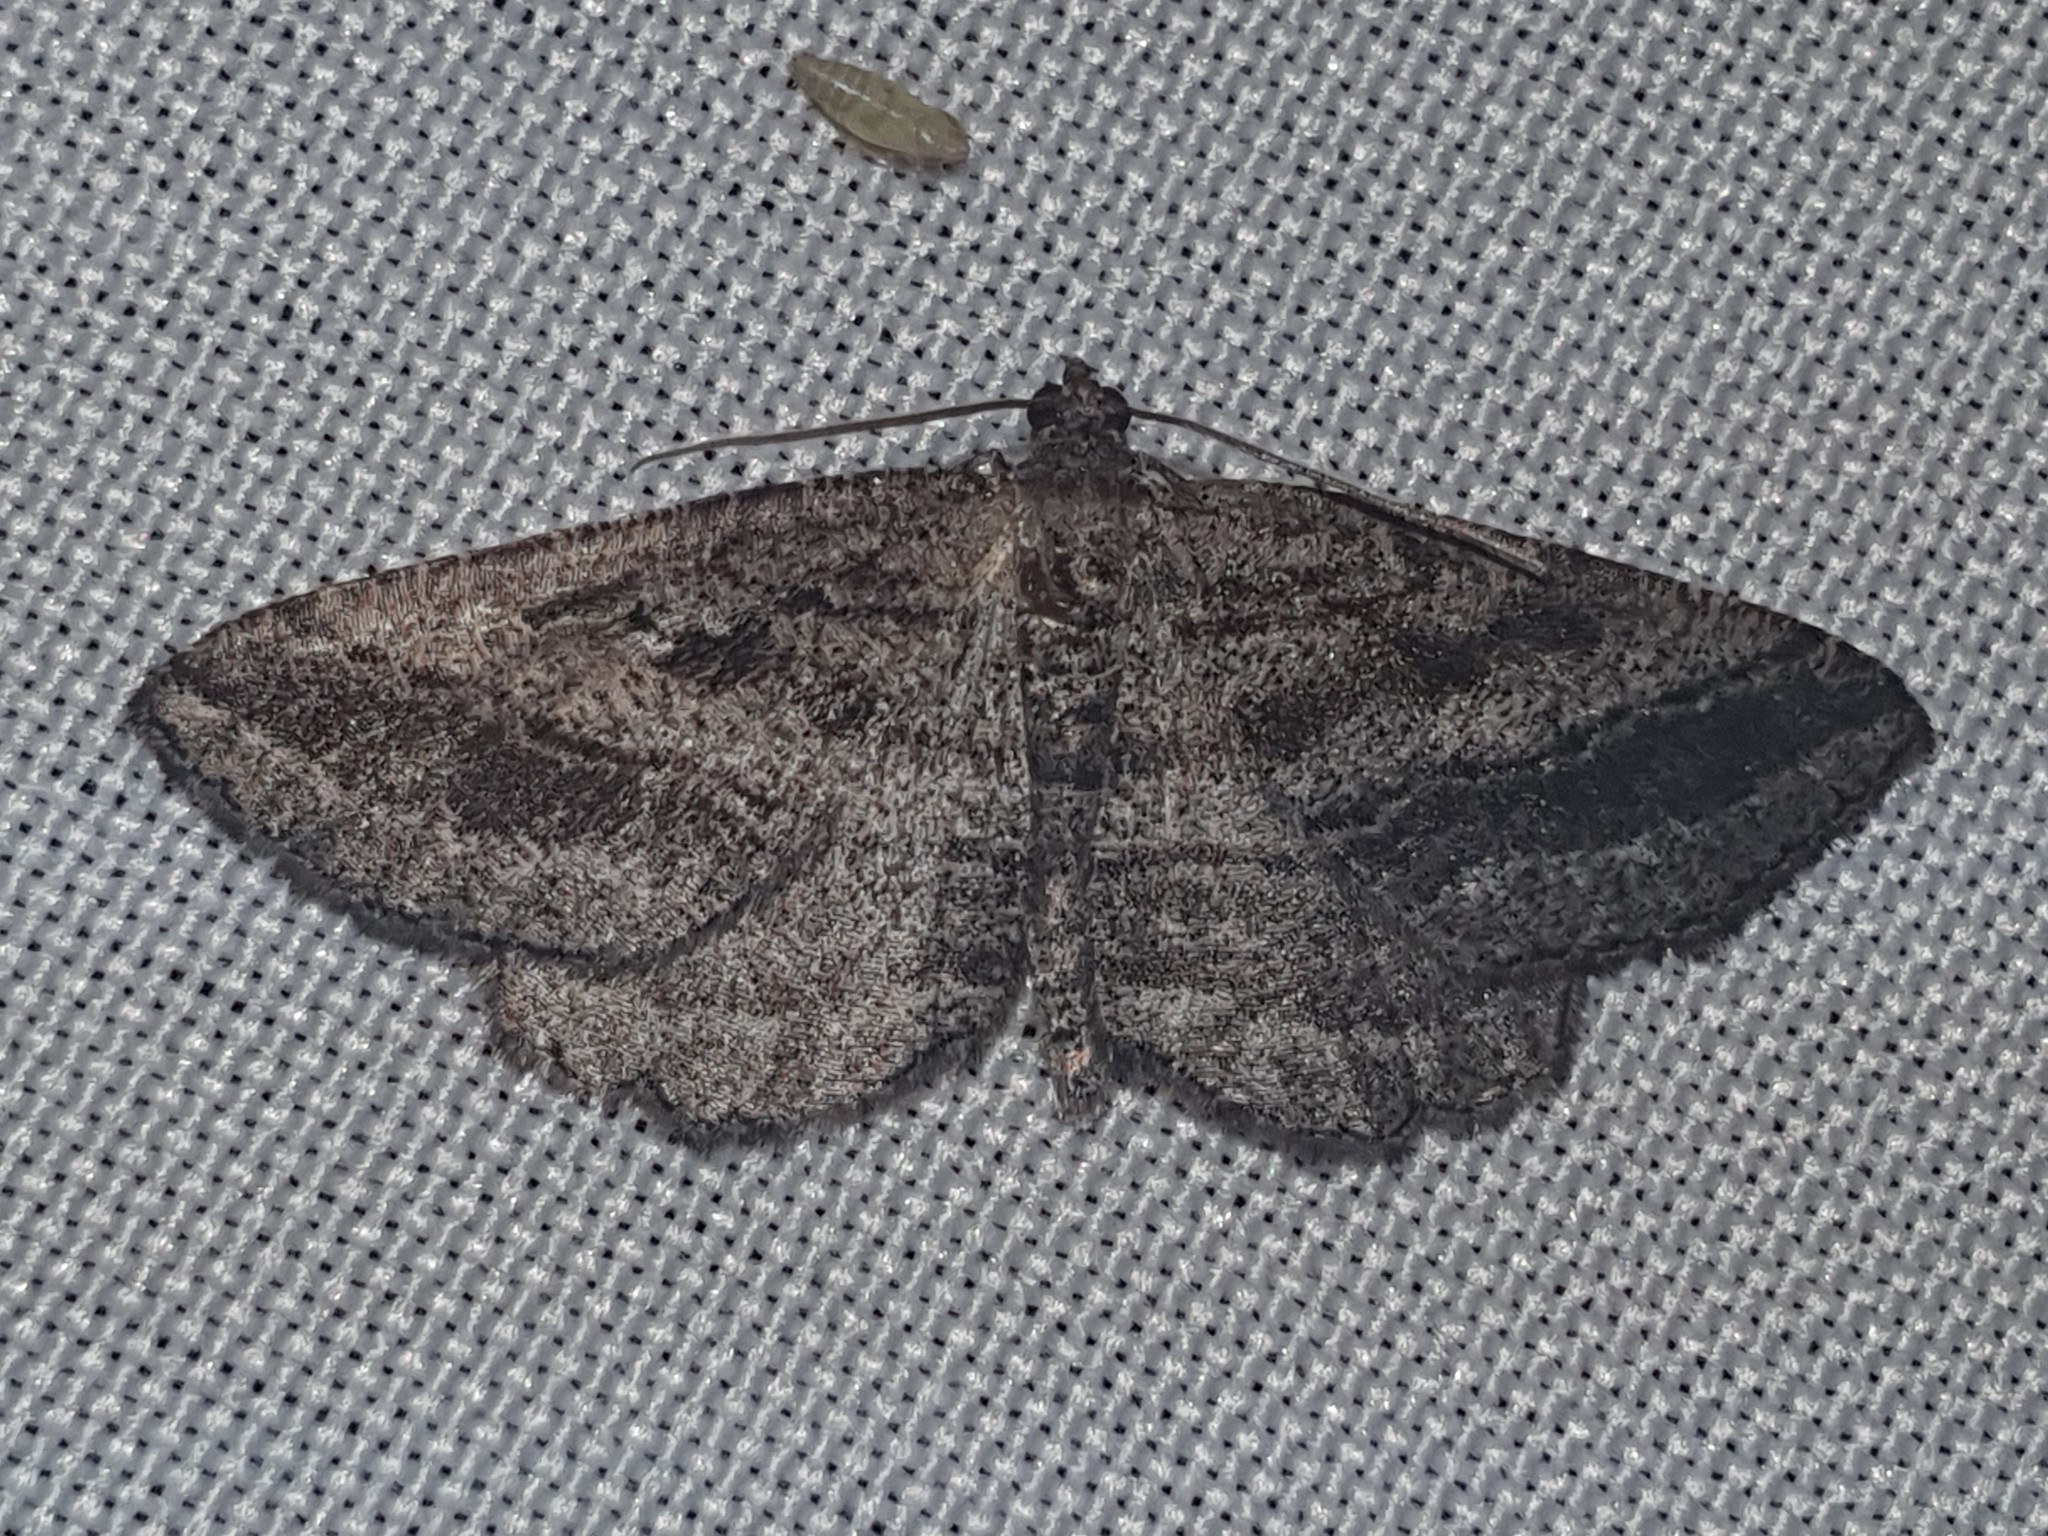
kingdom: Animalia
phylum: Arthropoda
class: Insecta
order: Lepidoptera
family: Geometridae
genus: Rhoptria
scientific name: Rhoptria asperaria
